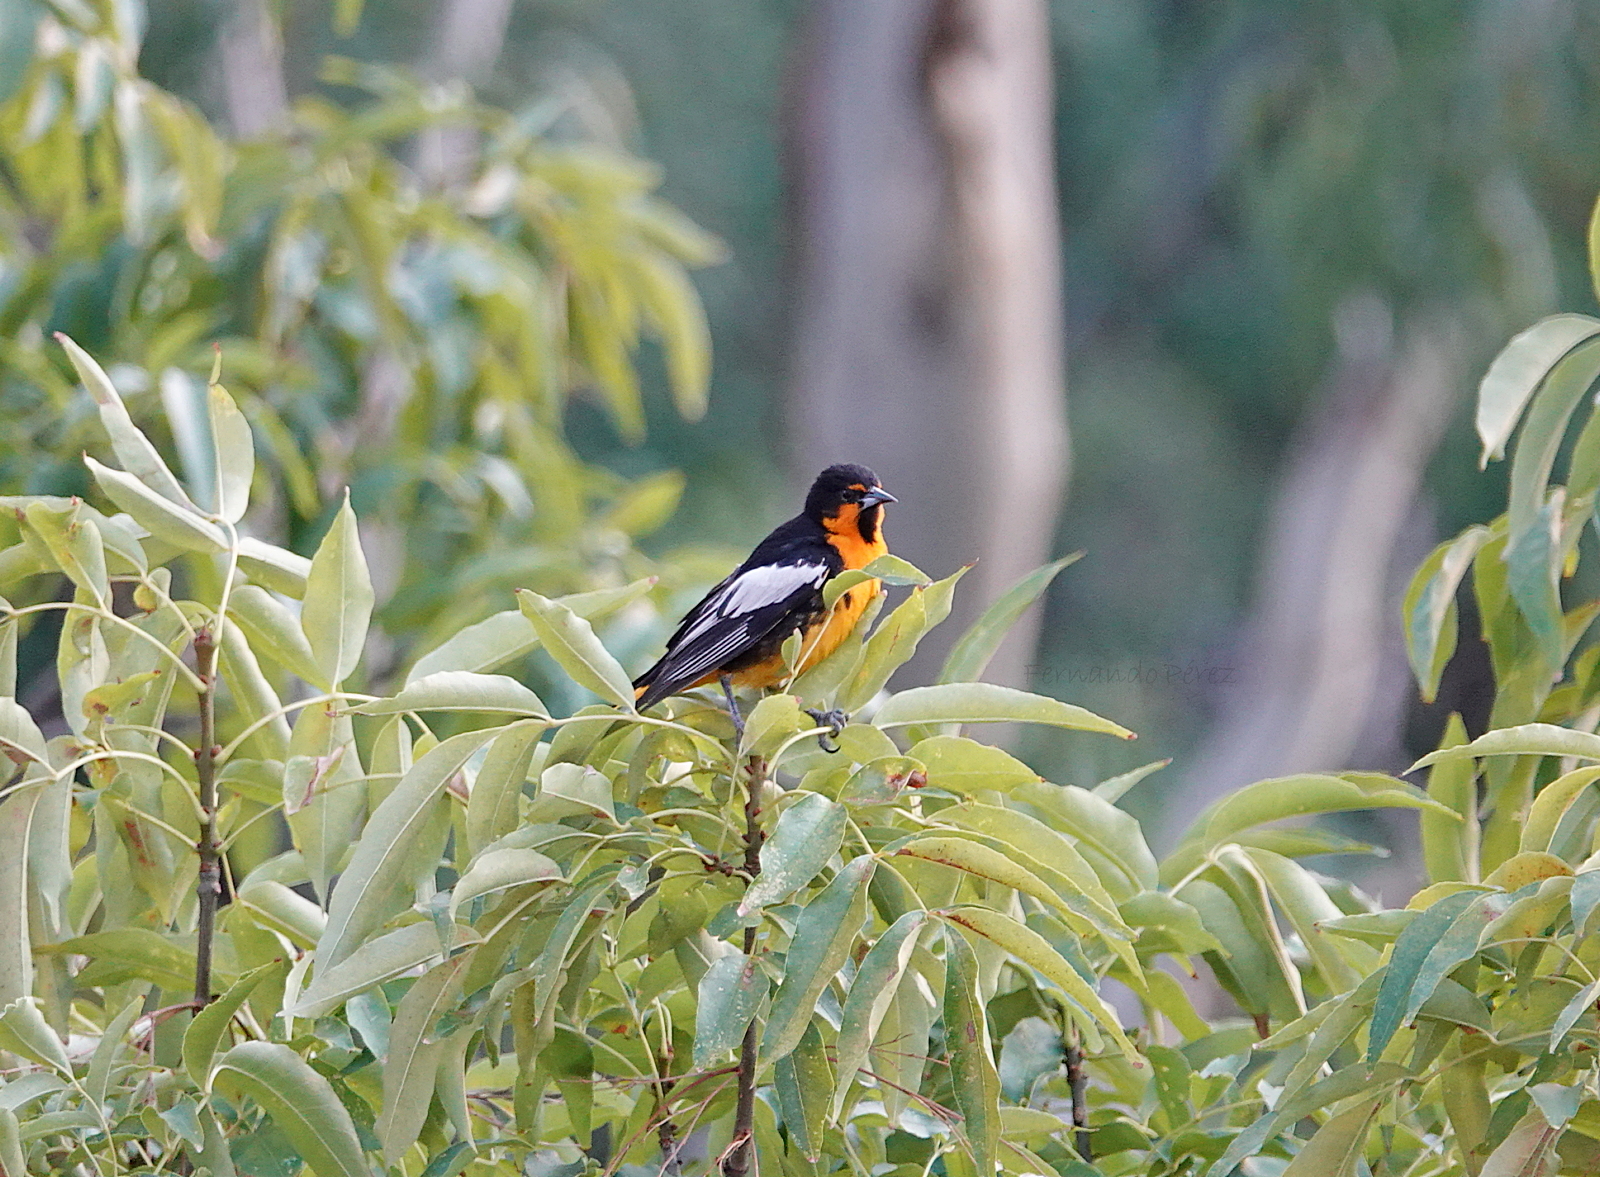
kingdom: Animalia
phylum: Chordata
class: Aves
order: Passeriformes
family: Icteridae
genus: Icterus
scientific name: Icterus abeillei
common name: Black-backed oriole
